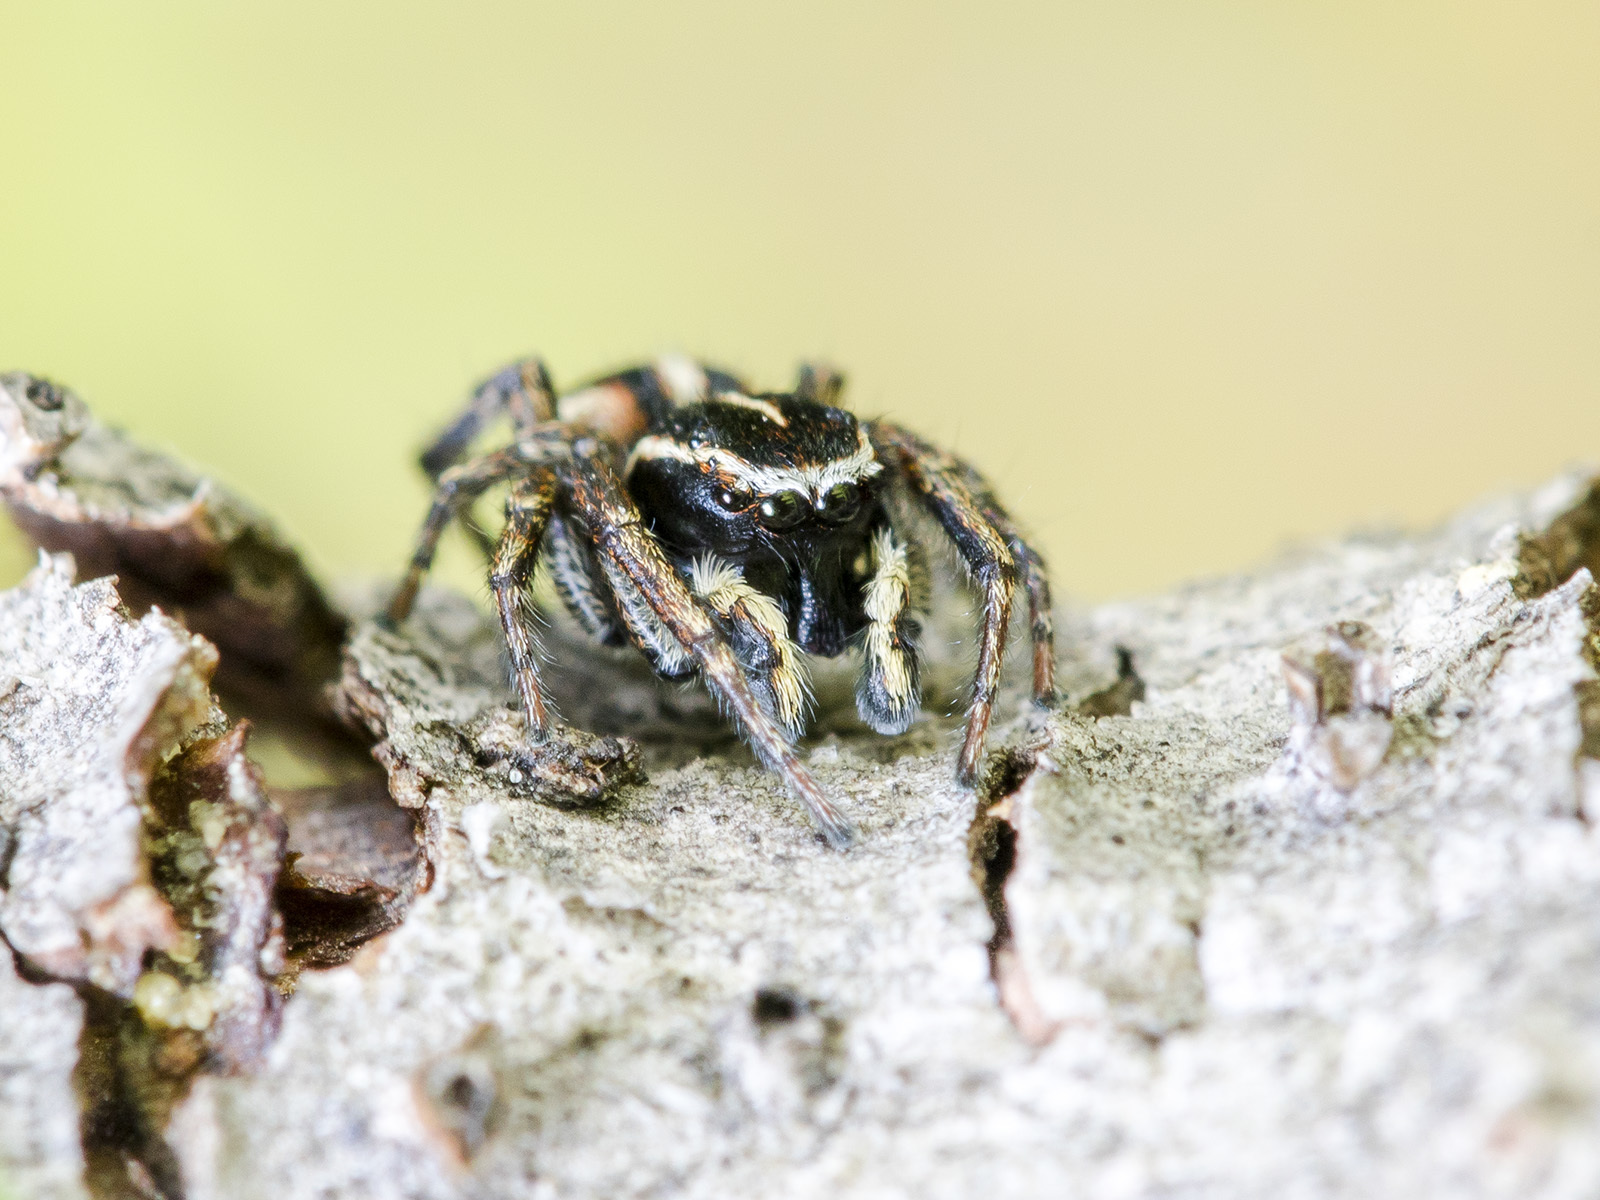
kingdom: Animalia
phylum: Arthropoda
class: Arachnida
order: Araneae
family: Salticidae
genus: Attulus
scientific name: Attulus talgarensis
